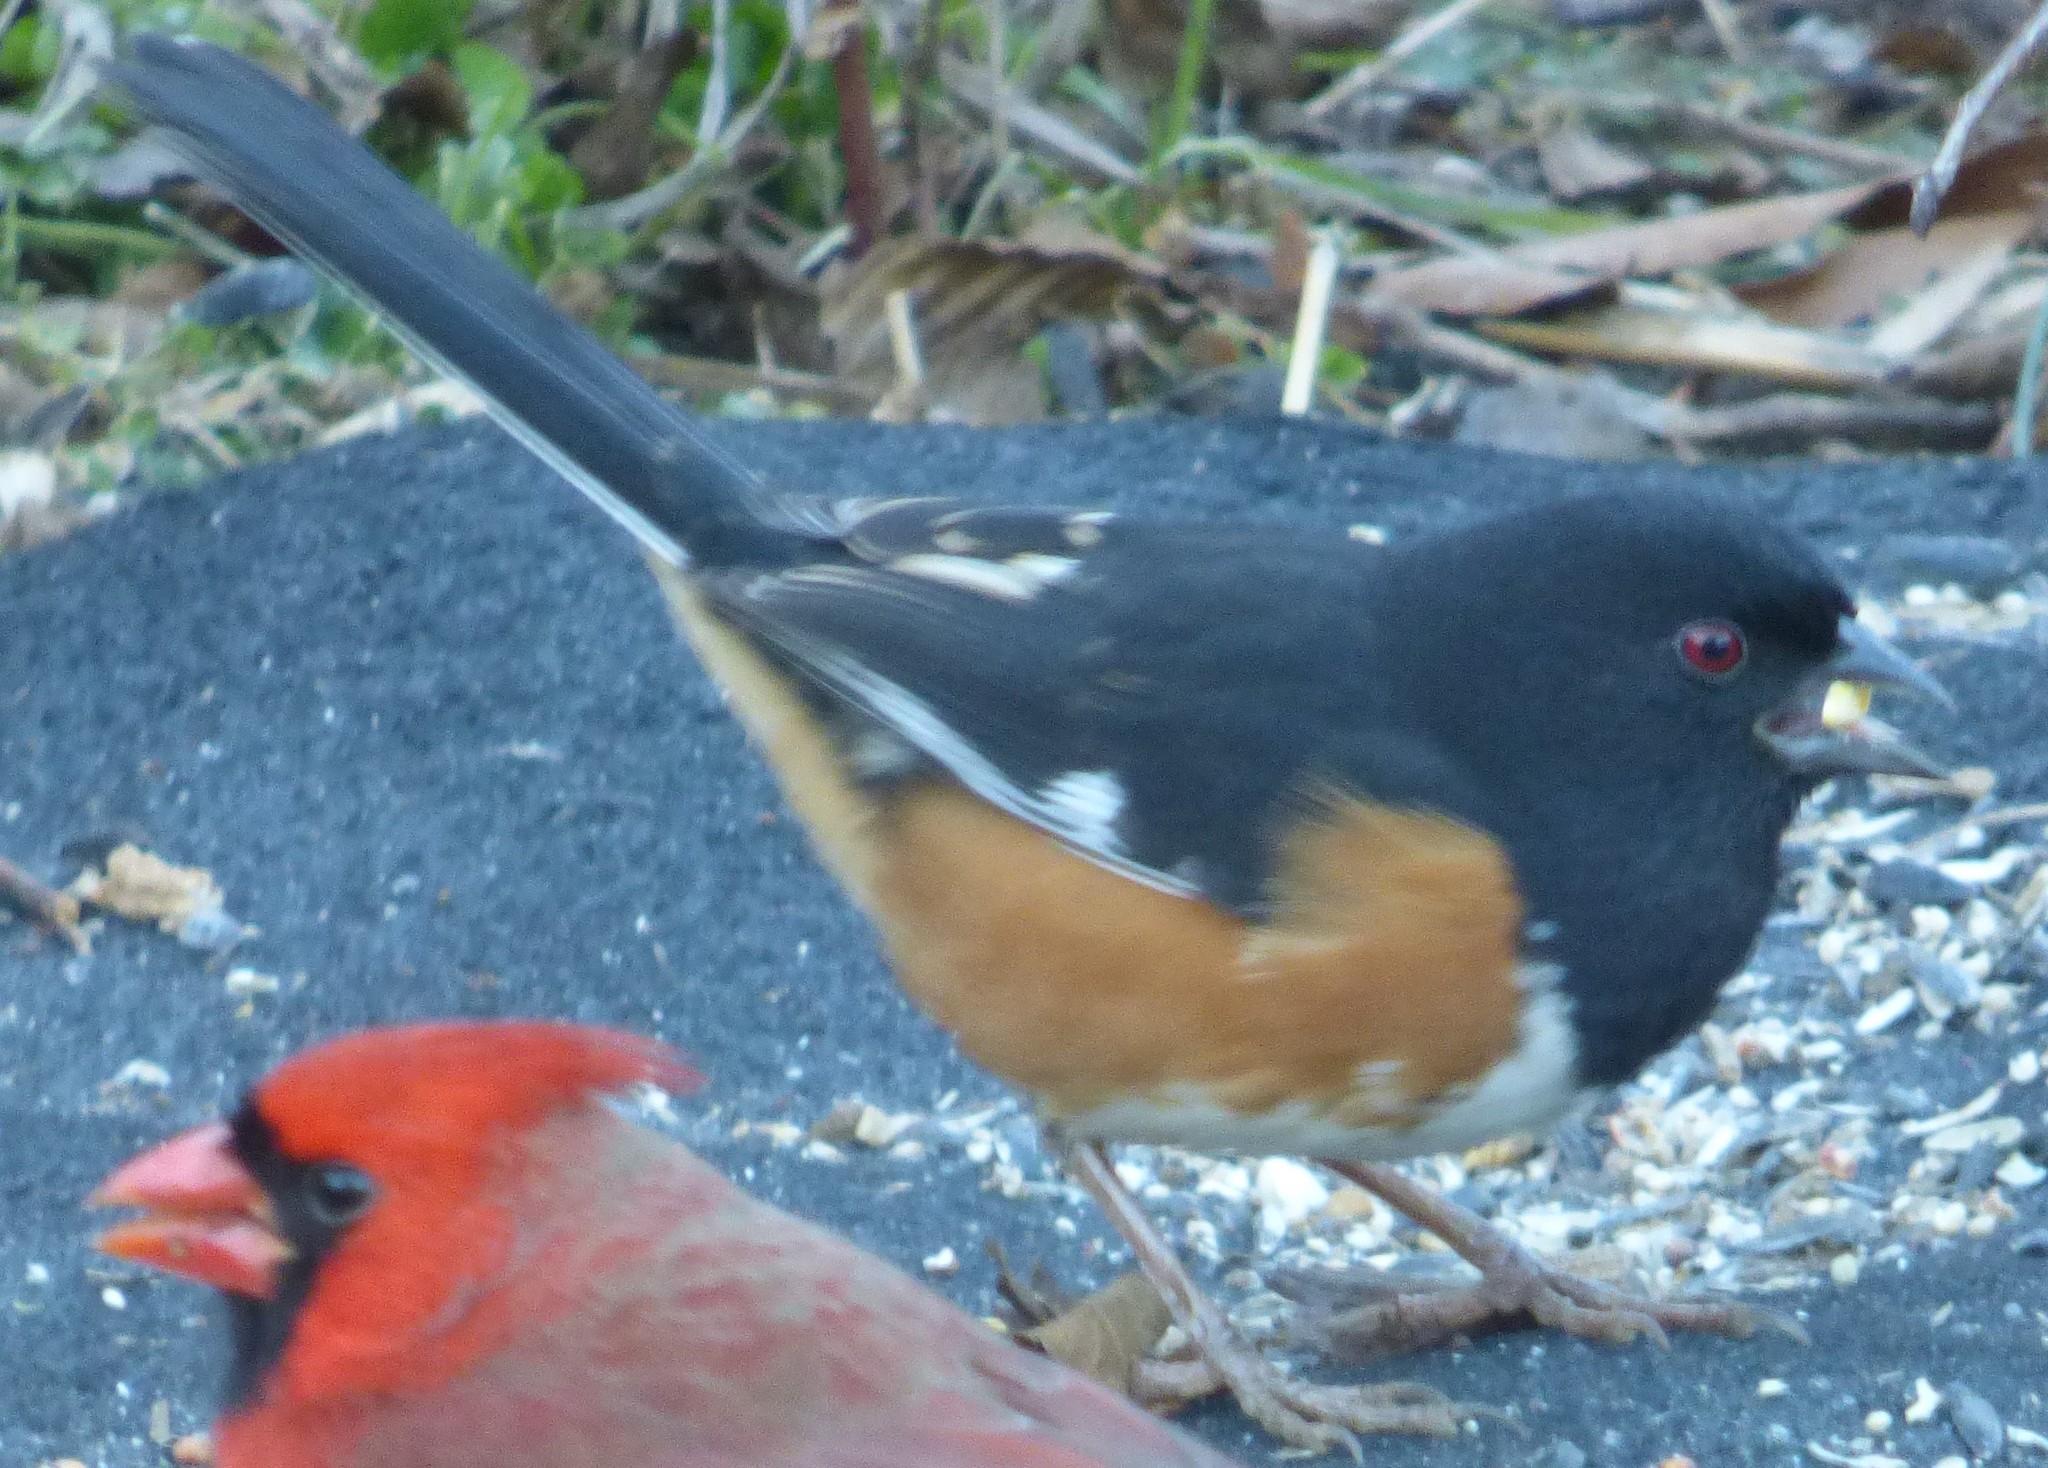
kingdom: Animalia
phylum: Chordata
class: Aves
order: Passeriformes
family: Passerellidae
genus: Pipilo
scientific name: Pipilo erythrophthalmus
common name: Eastern towhee
